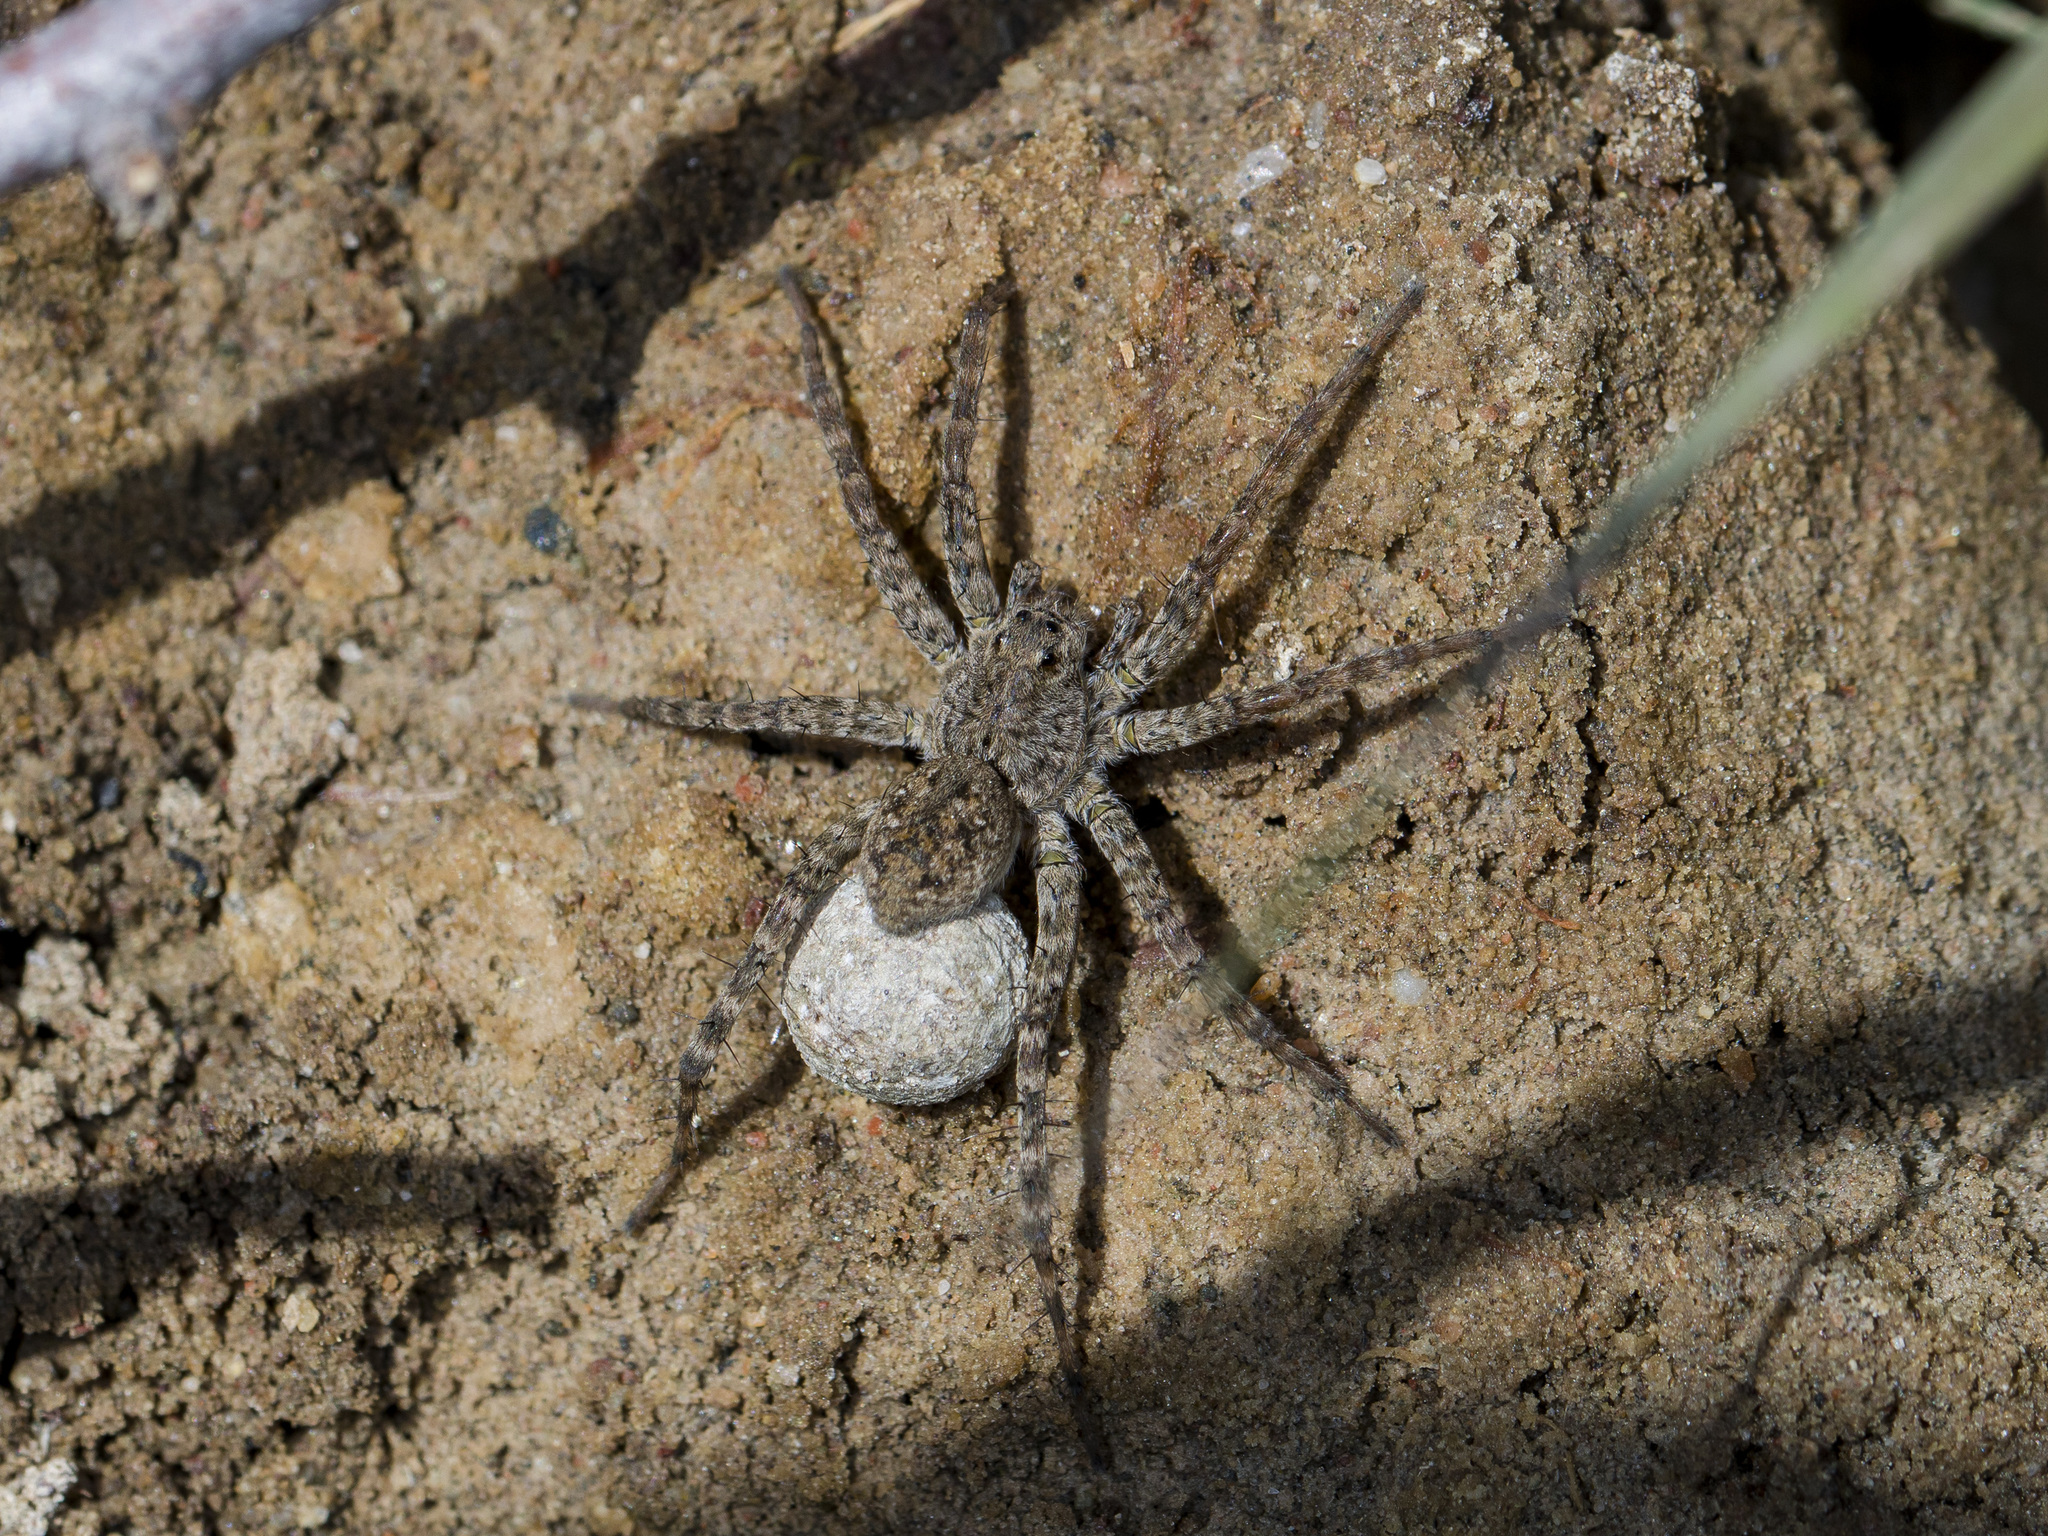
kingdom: Animalia
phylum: Arthropoda
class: Arachnida
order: Araneae
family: Lycosidae
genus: Pardosa
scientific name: Pardosa nebulosa
